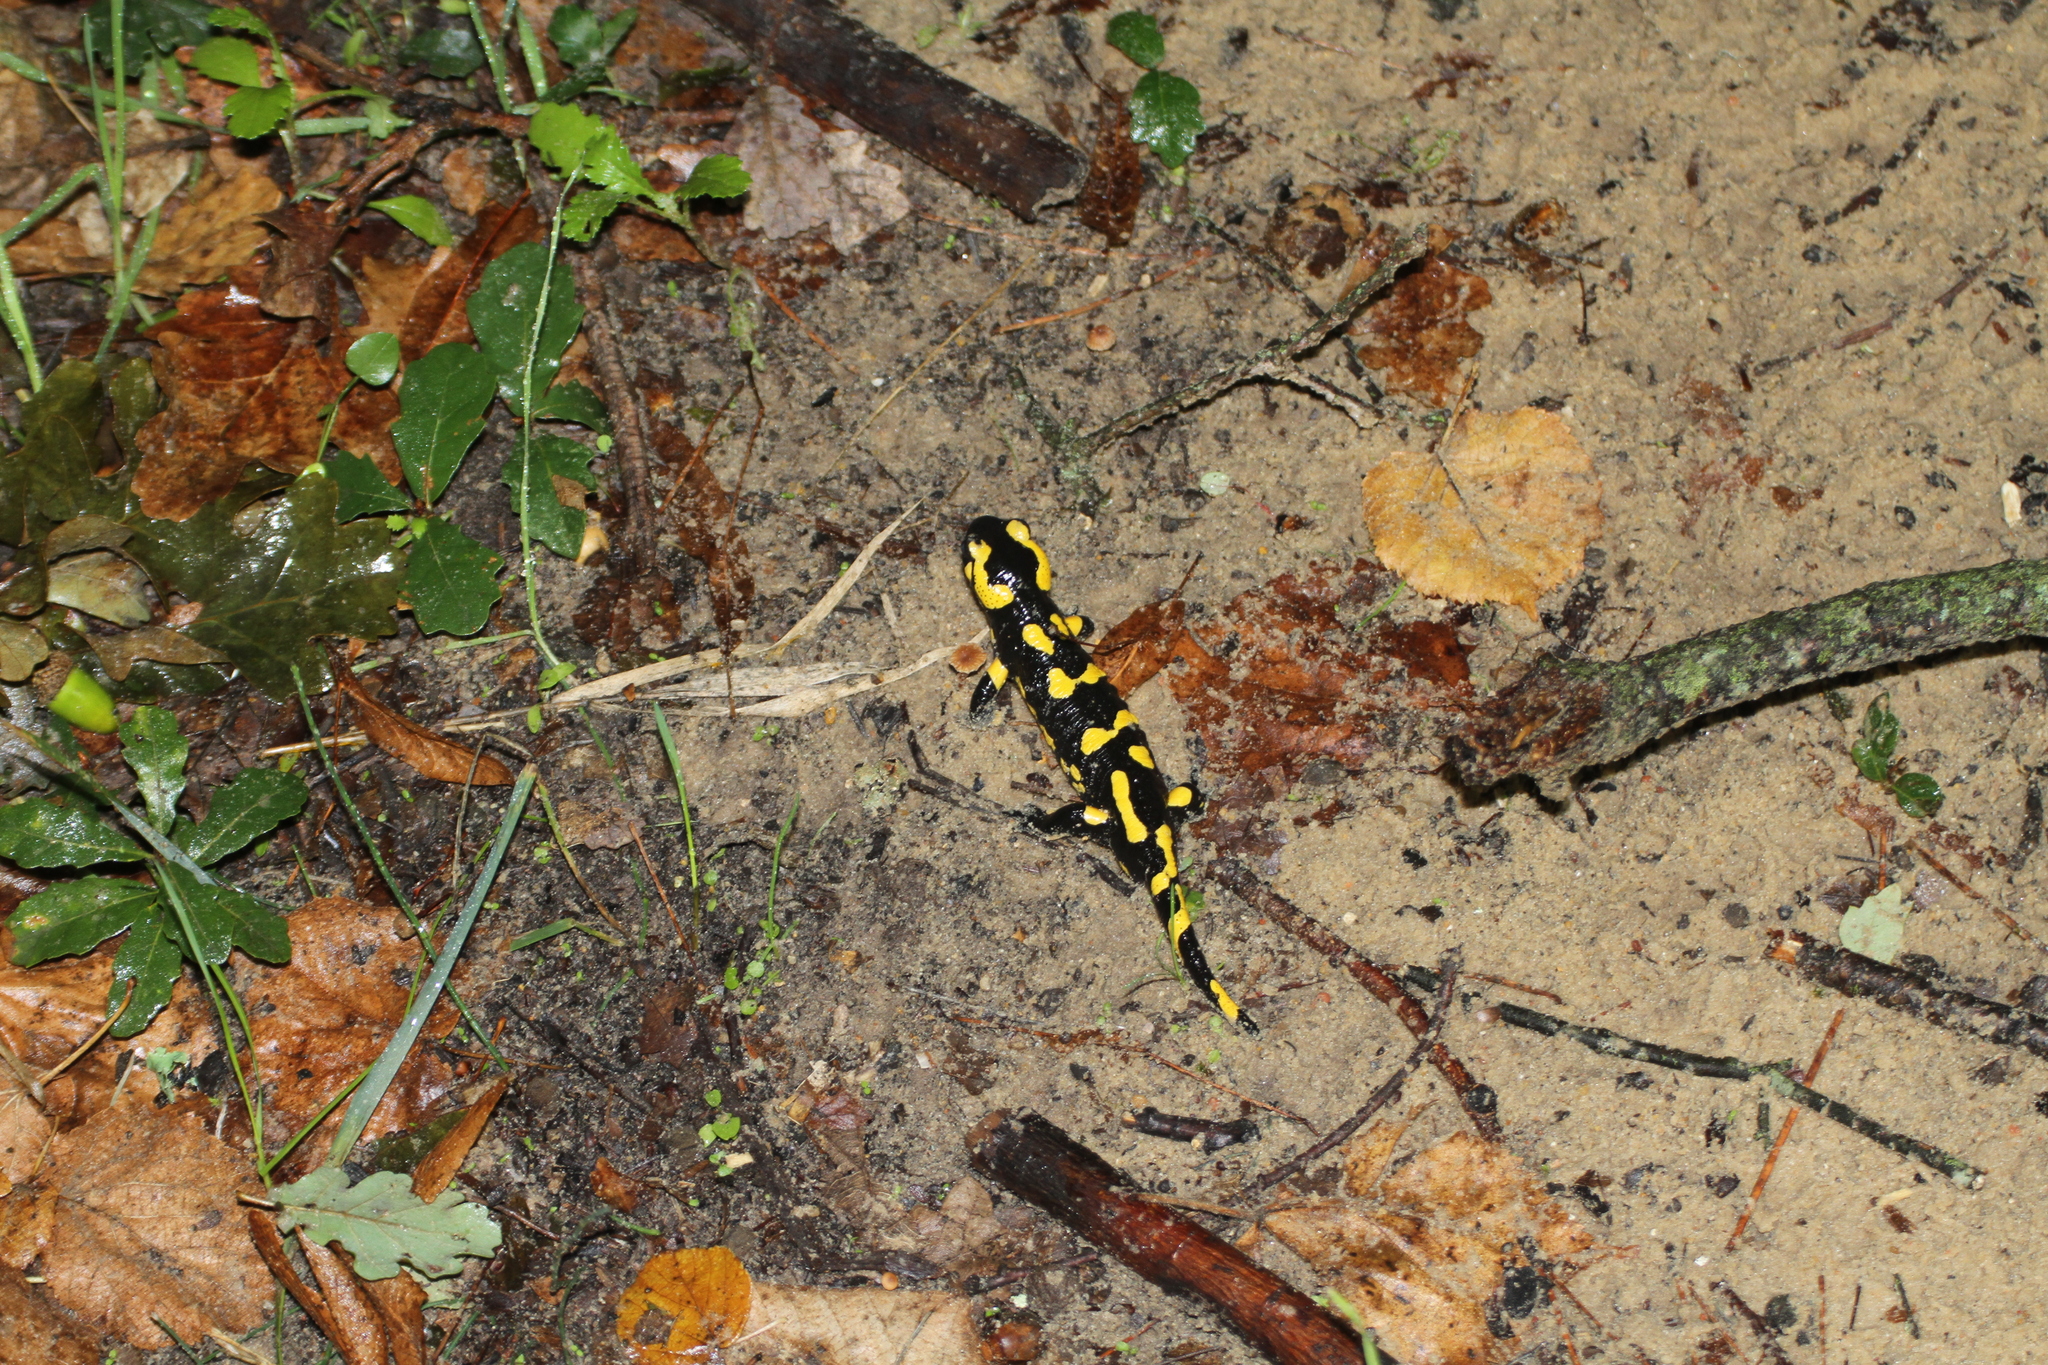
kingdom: Animalia
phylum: Chordata
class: Amphibia
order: Caudata
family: Salamandridae
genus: Salamandra
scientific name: Salamandra salamandra
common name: Fire salamander
